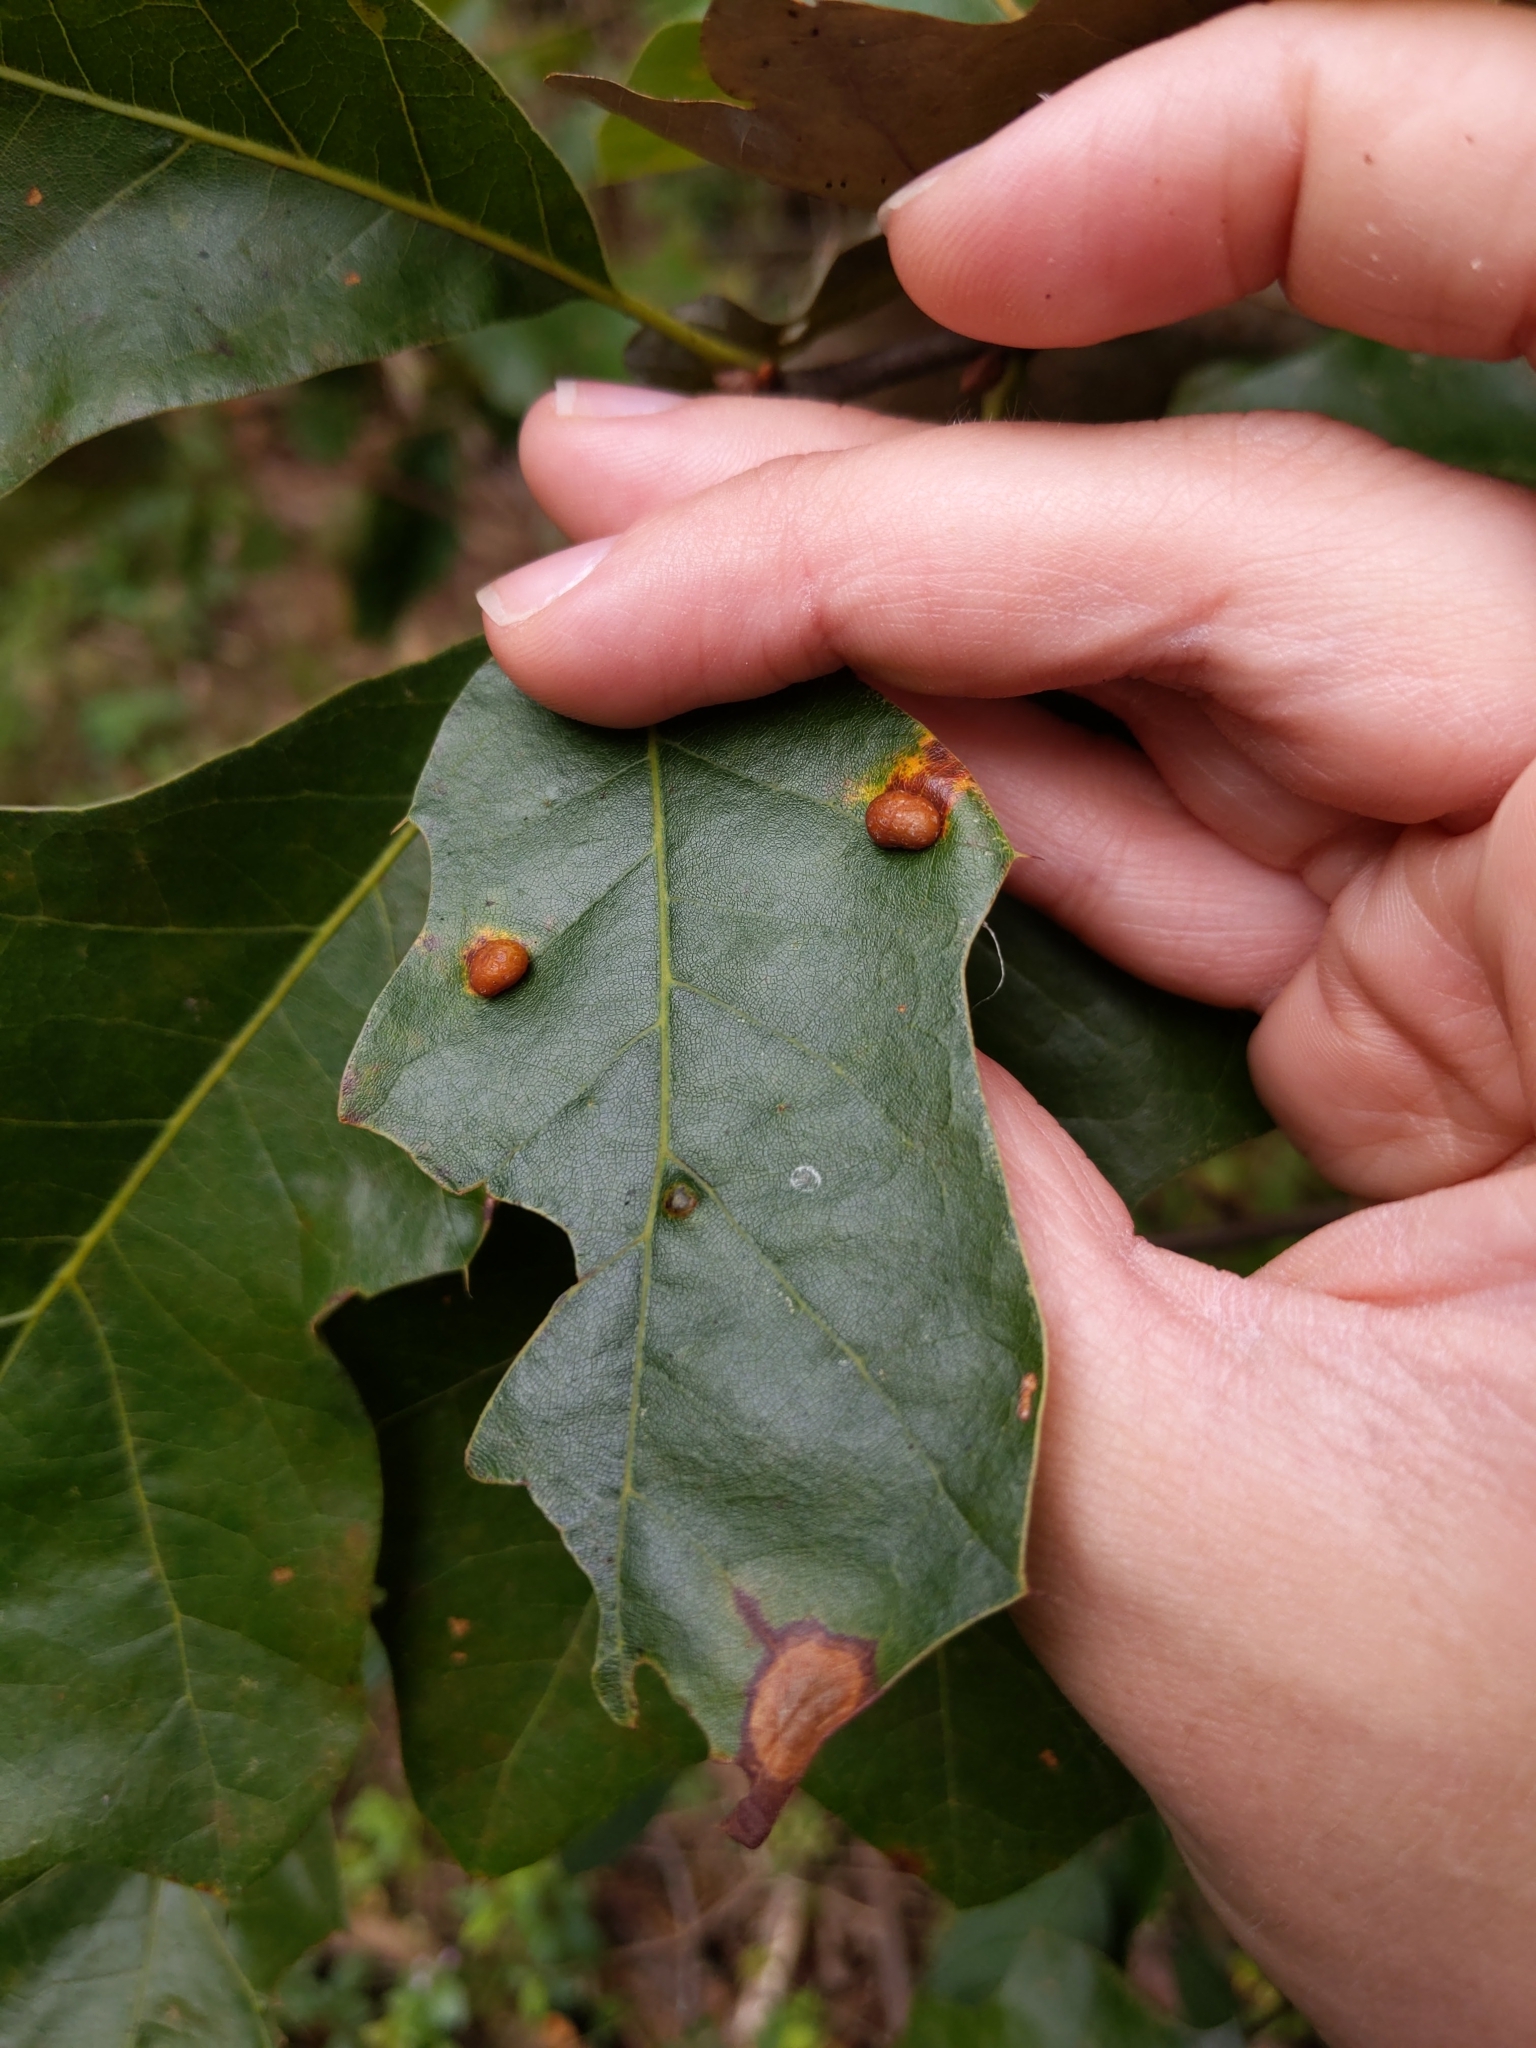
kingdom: Animalia
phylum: Arthropoda
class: Insecta
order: Diptera
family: Cecidomyiidae
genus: Polystepha
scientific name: Polystepha pilulae
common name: Oak leaf gall midge
